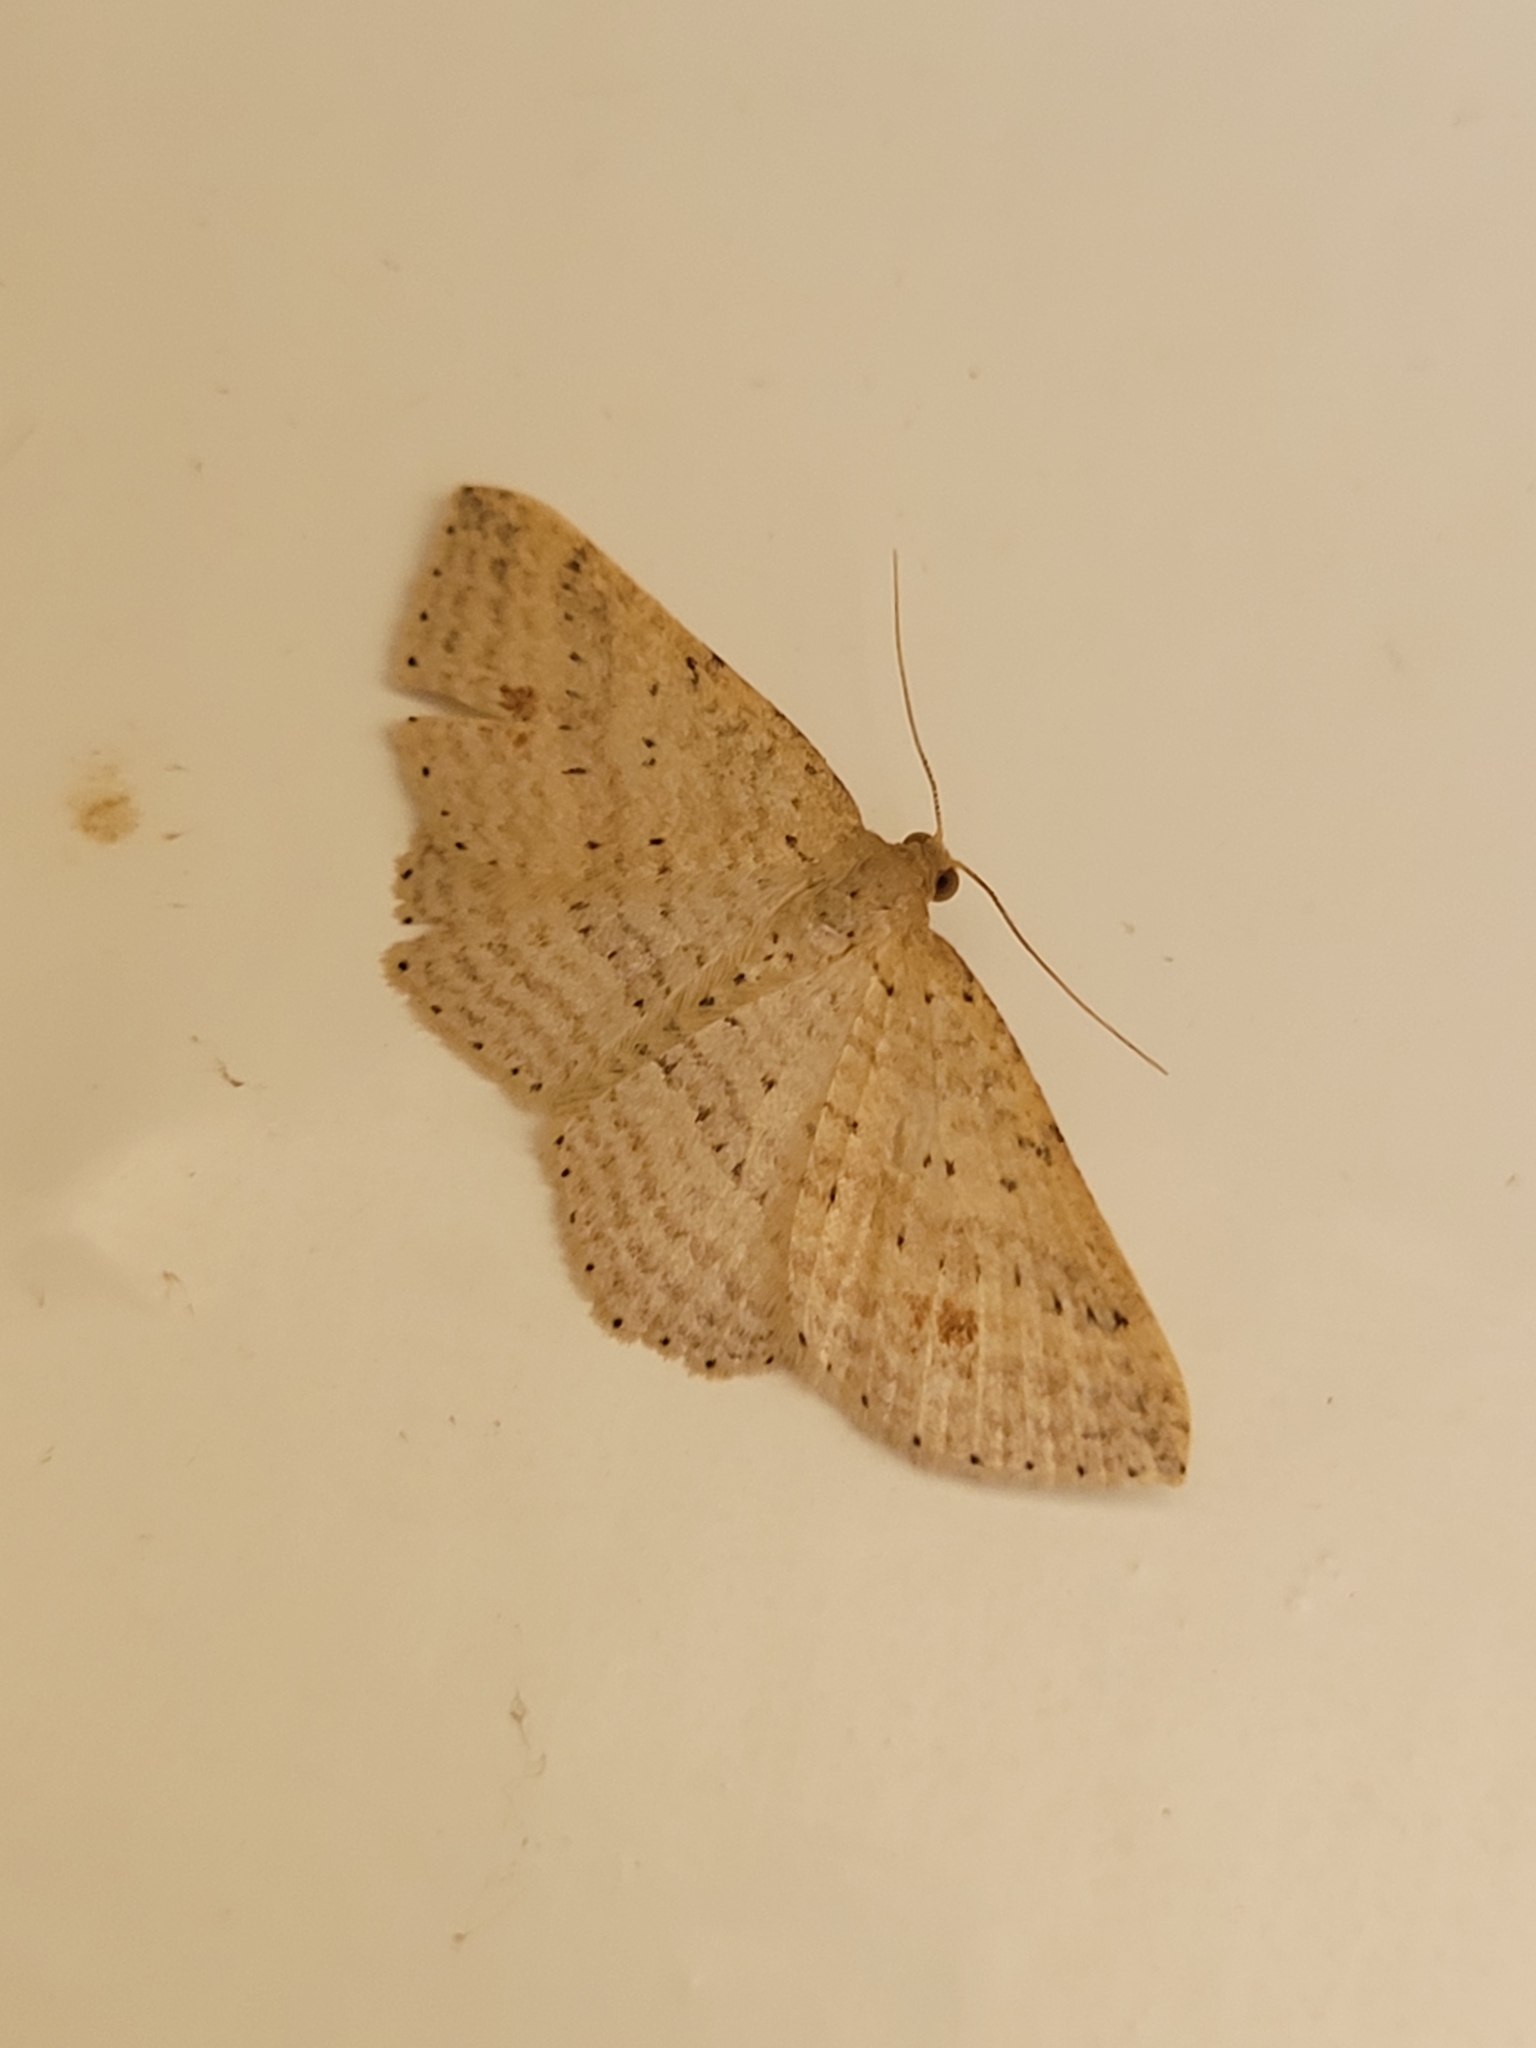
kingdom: Animalia
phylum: Arthropoda
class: Insecta
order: Lepidoptera
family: Geometridae
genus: Epicyme
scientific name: Epicyme rubropunctaria
